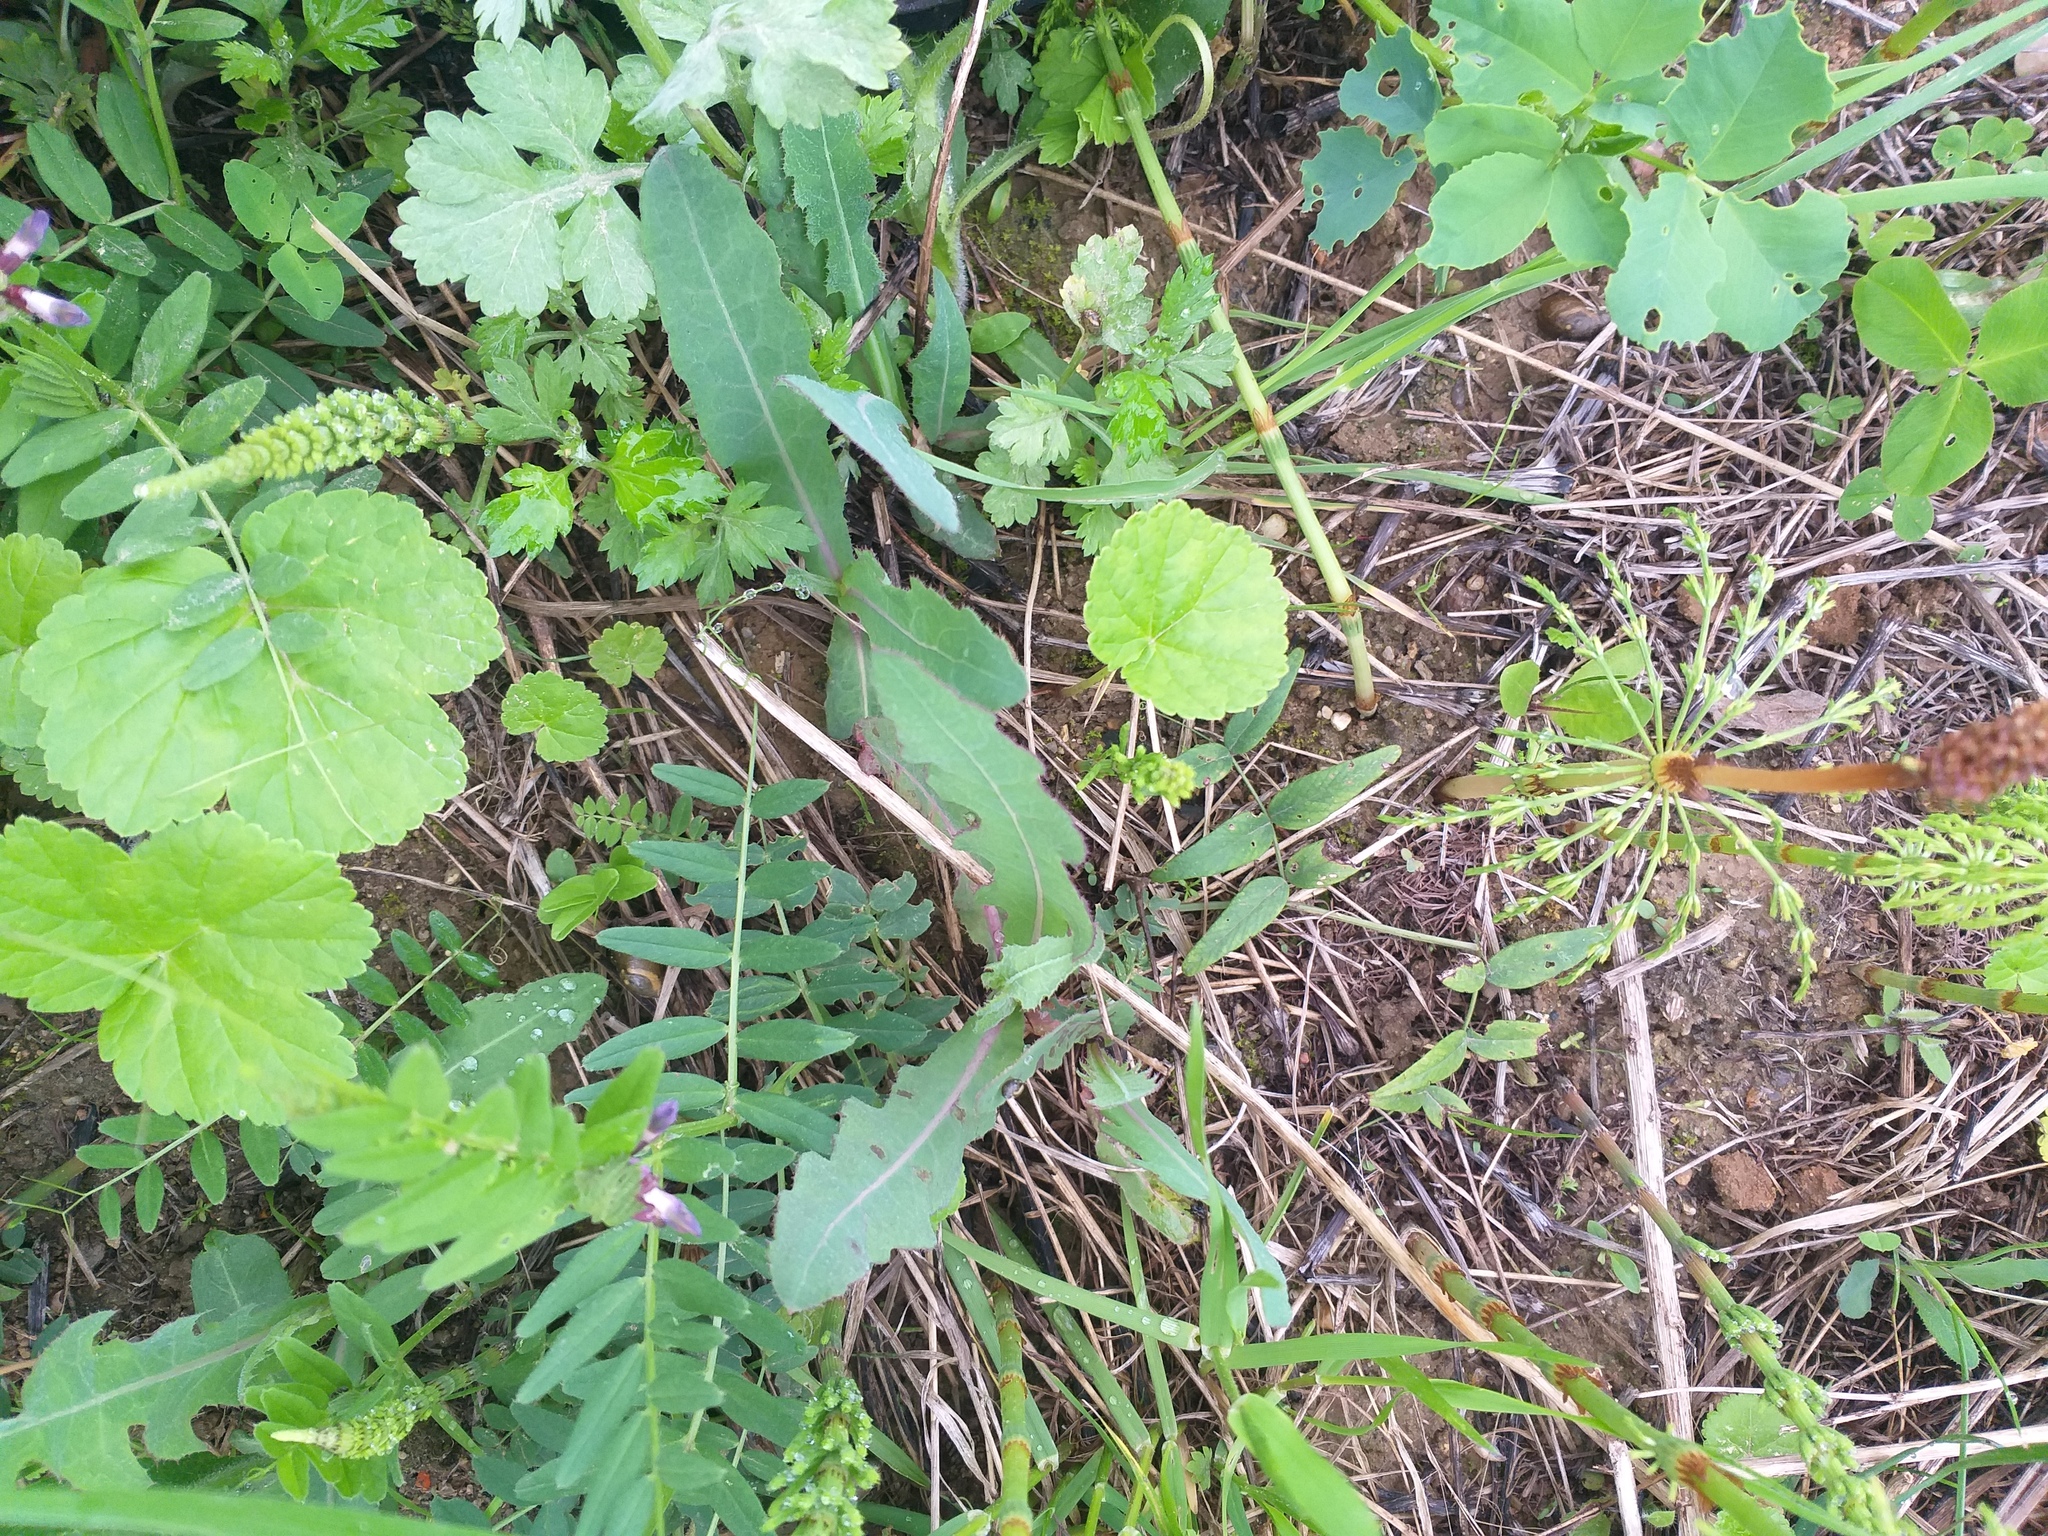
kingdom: Plantae
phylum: Tracheophyta
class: Magnoliopsida
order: Asterales
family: Asteraceae
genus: Sonchus
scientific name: Sonchus arvensis
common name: Perennial sow-thistle
